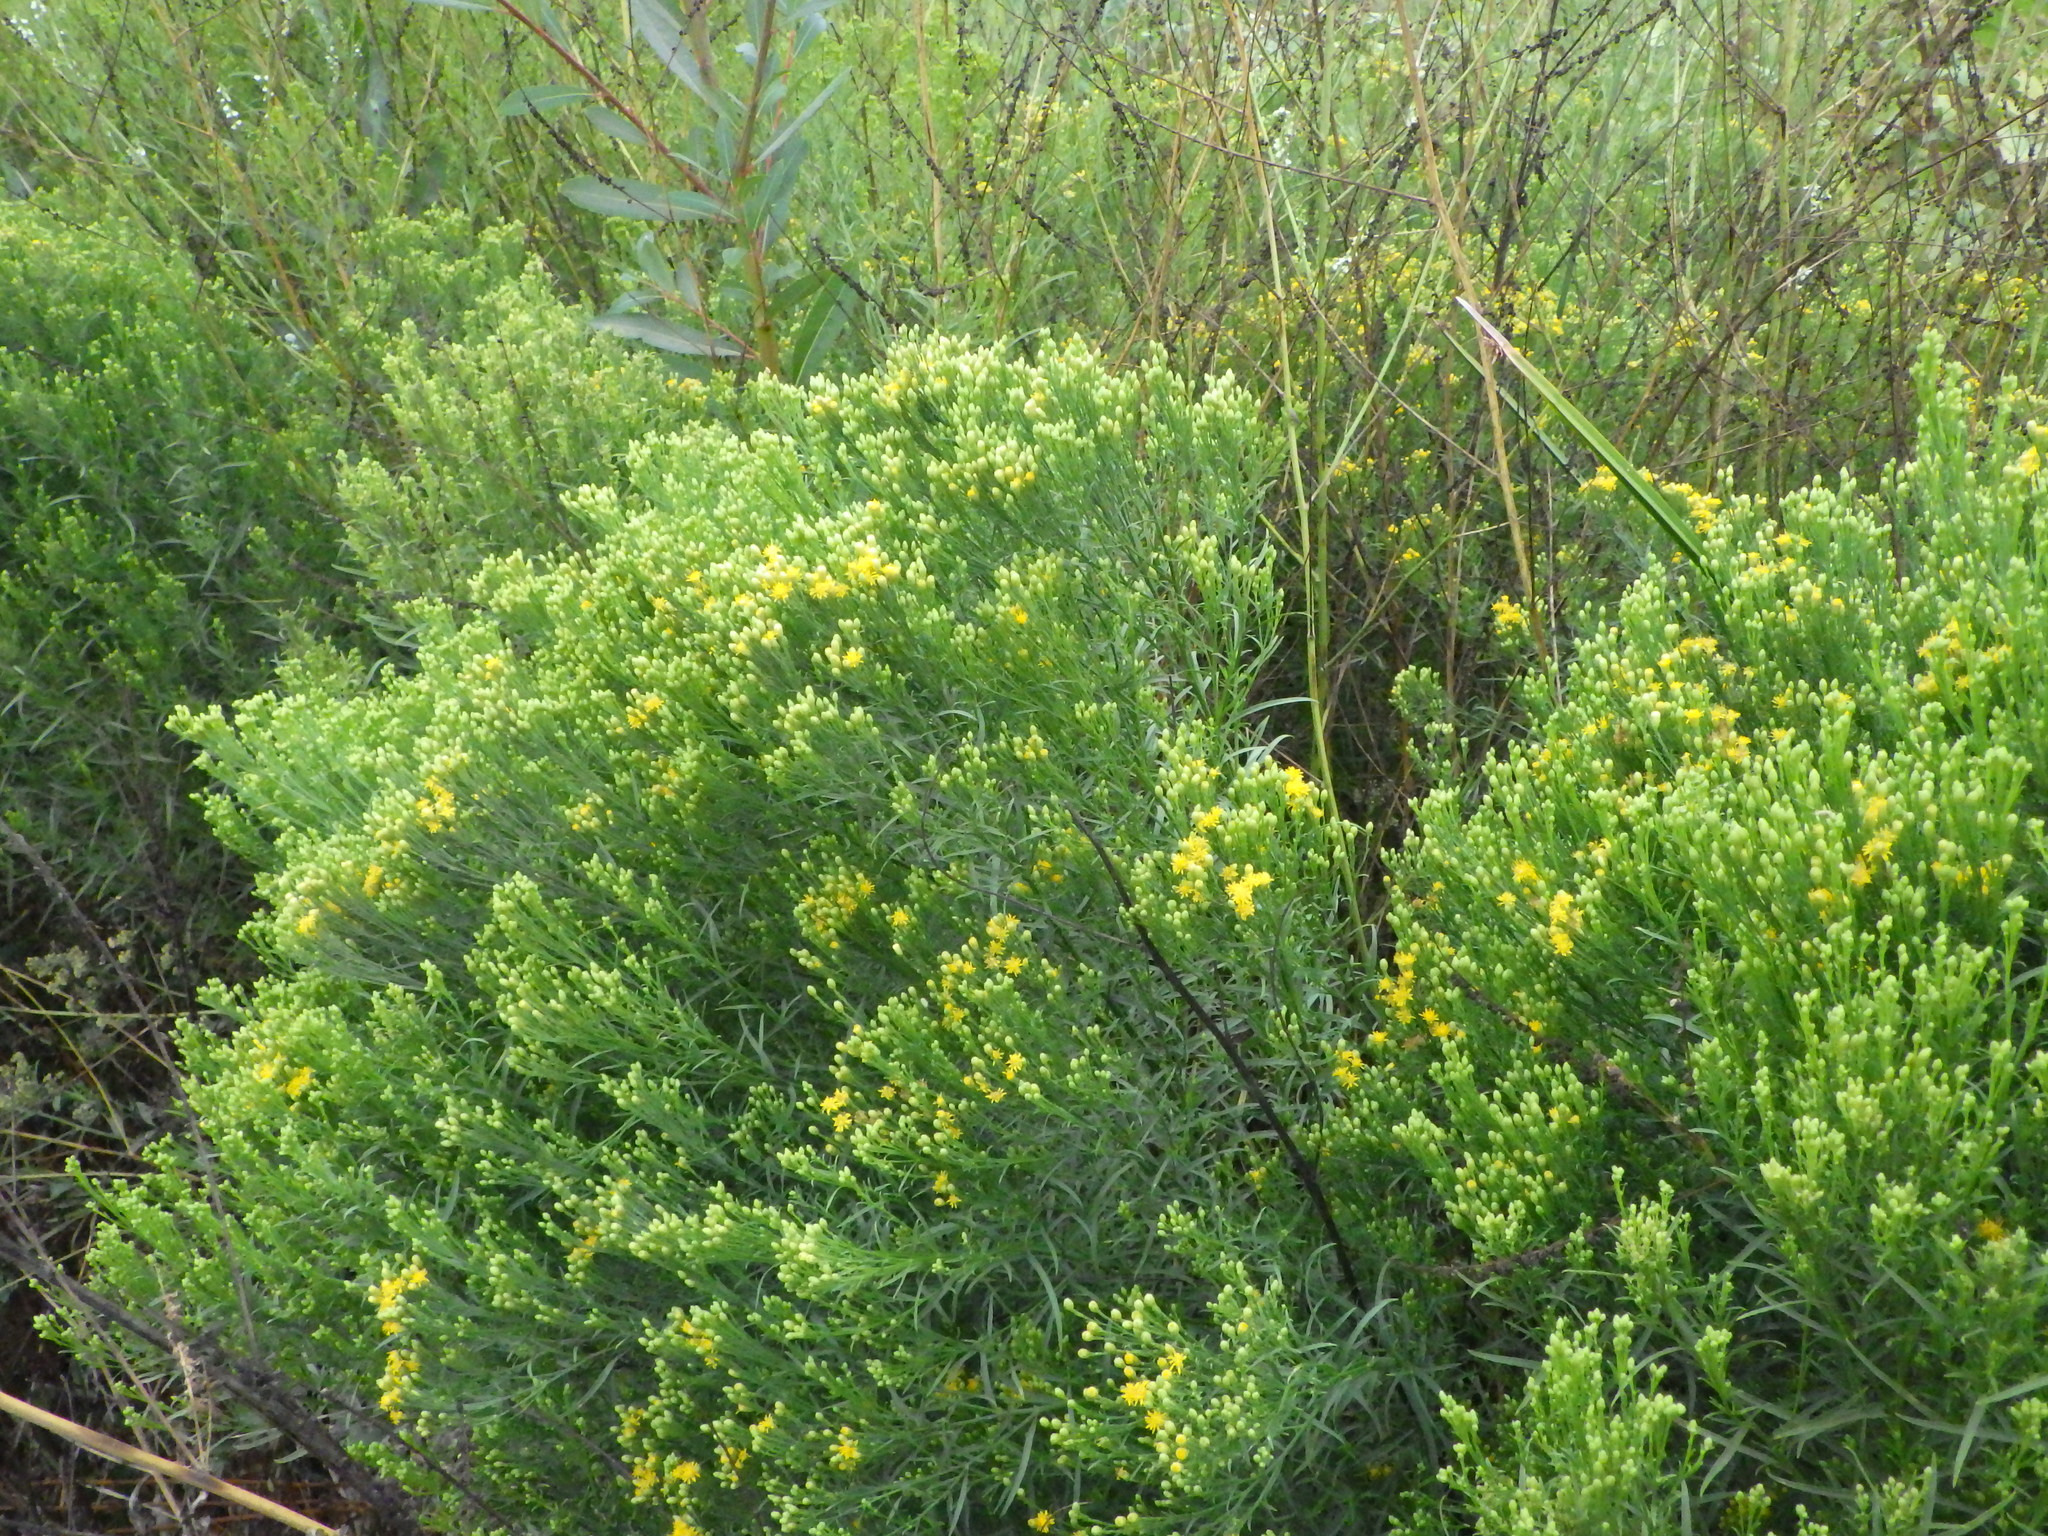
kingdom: Plantae
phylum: Tracheophyta
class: Magnoliopsida
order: Asterales
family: Asteraceae
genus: Euthamia
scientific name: Euthamia occidentalis
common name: Western goldentop
